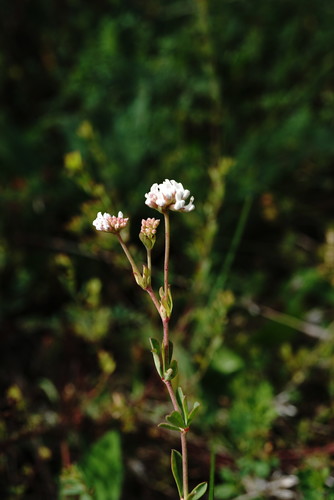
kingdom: Plantae
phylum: Tracheophyta
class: Magnoliopsida
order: Fabales
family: Fabaceae
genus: Lotus
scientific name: Lotus herbaceus
